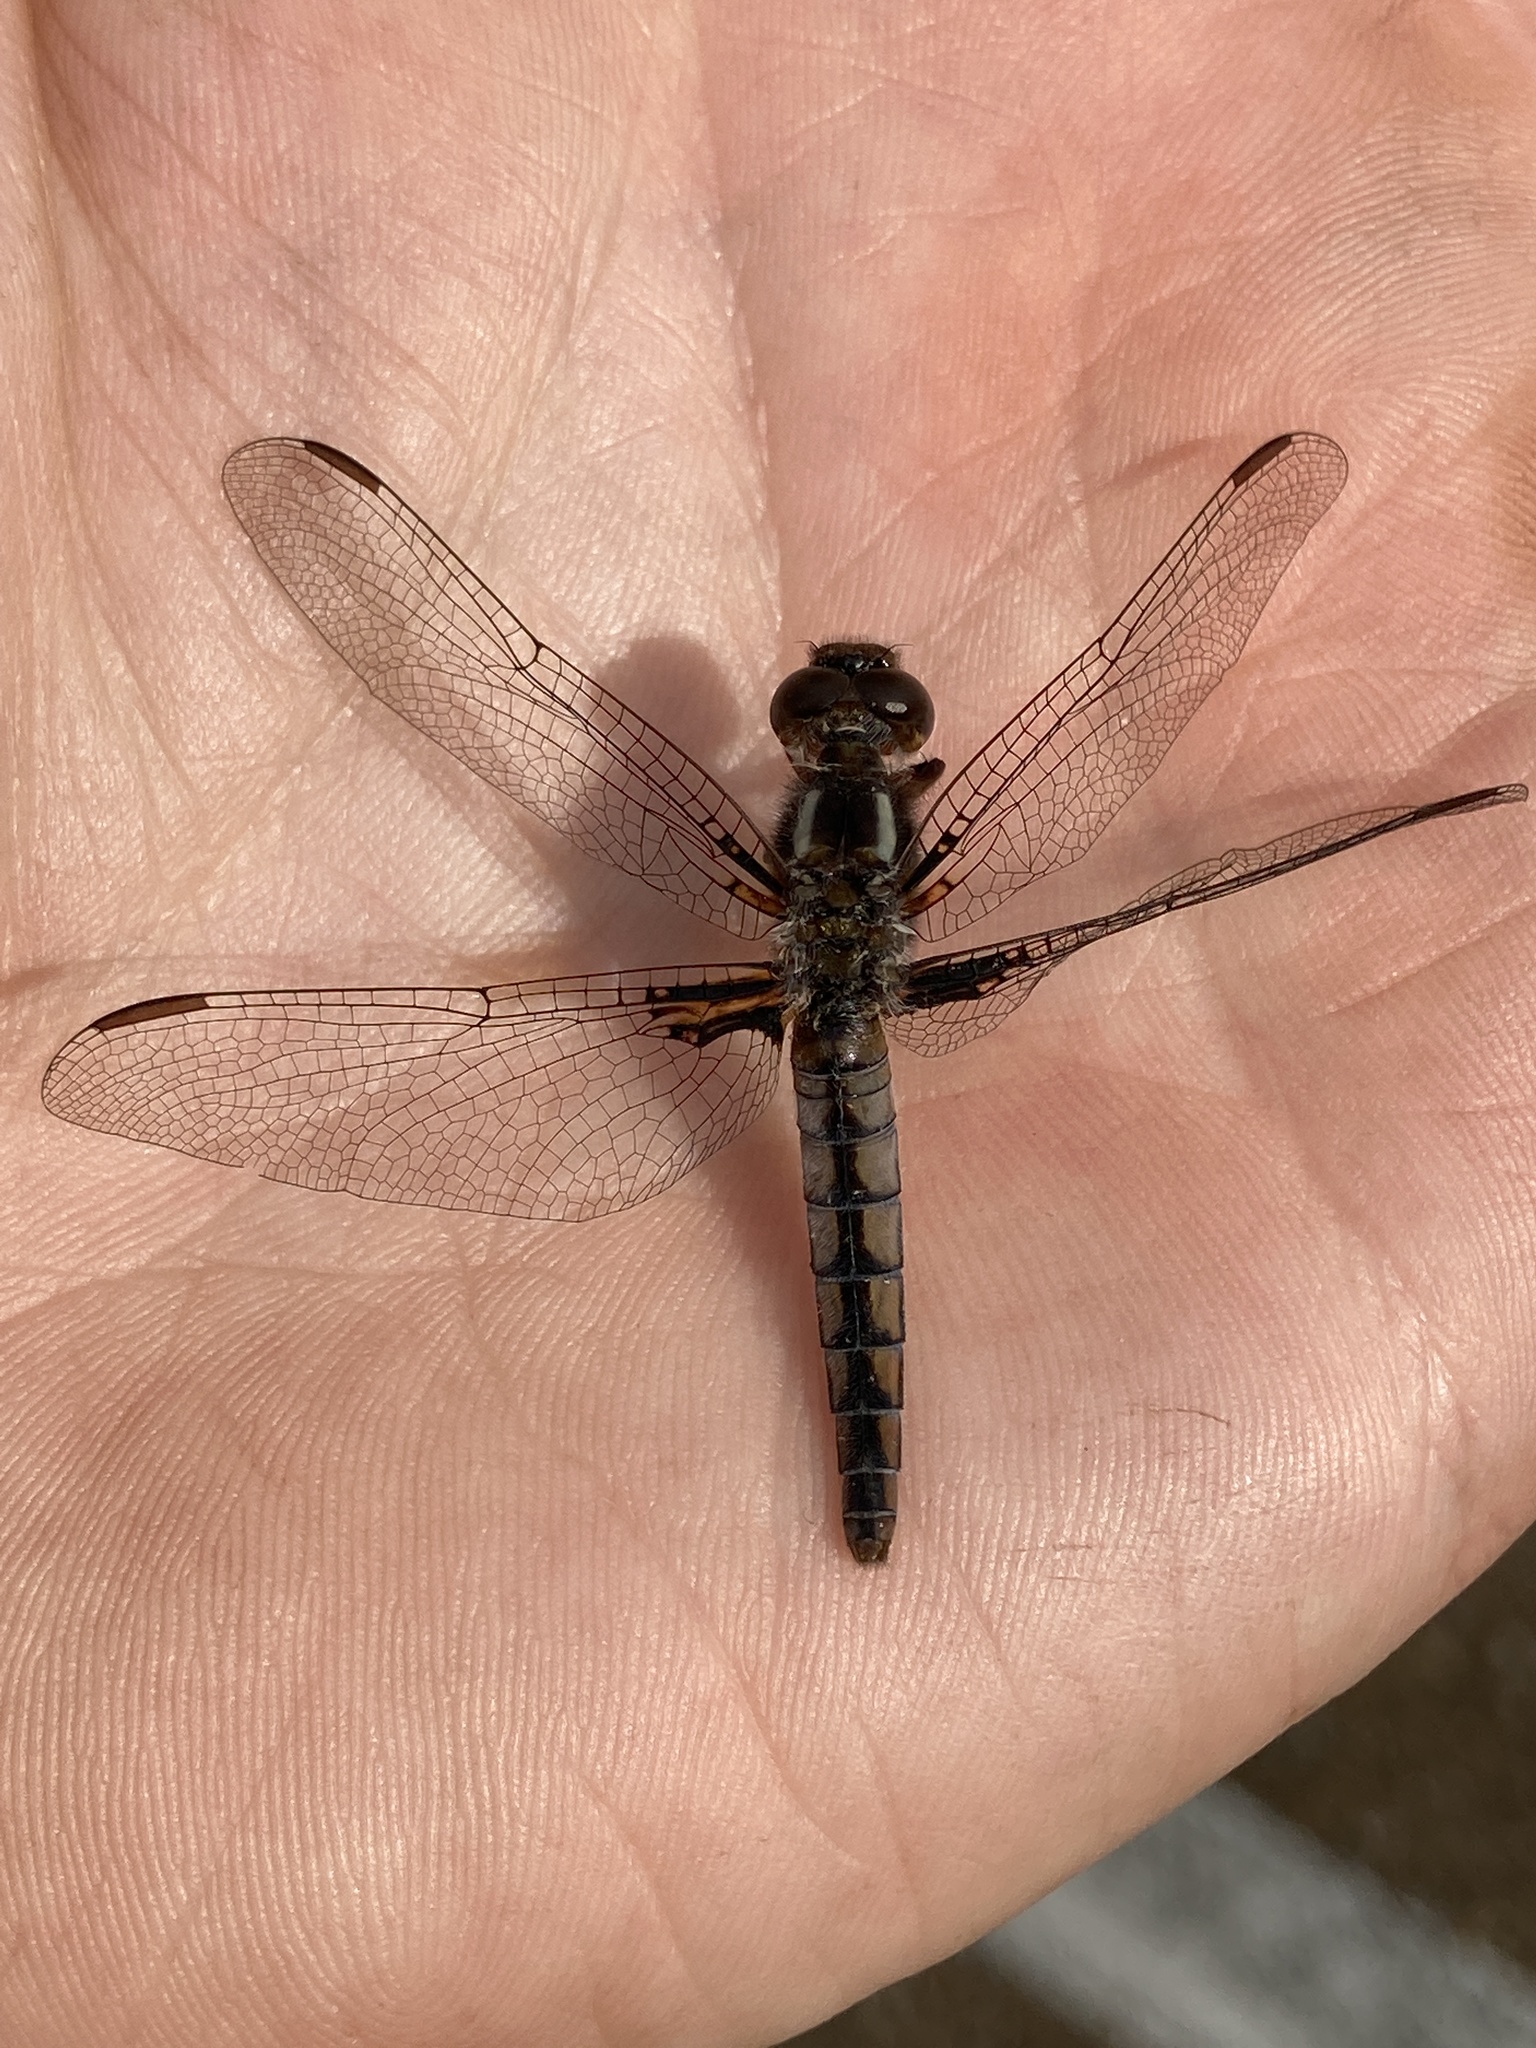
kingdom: Animalia
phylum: Arthropoda
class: Insecta
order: Odonata
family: Libellulidae
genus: Ladona
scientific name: Ladona deplanata
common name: Blue corporal
